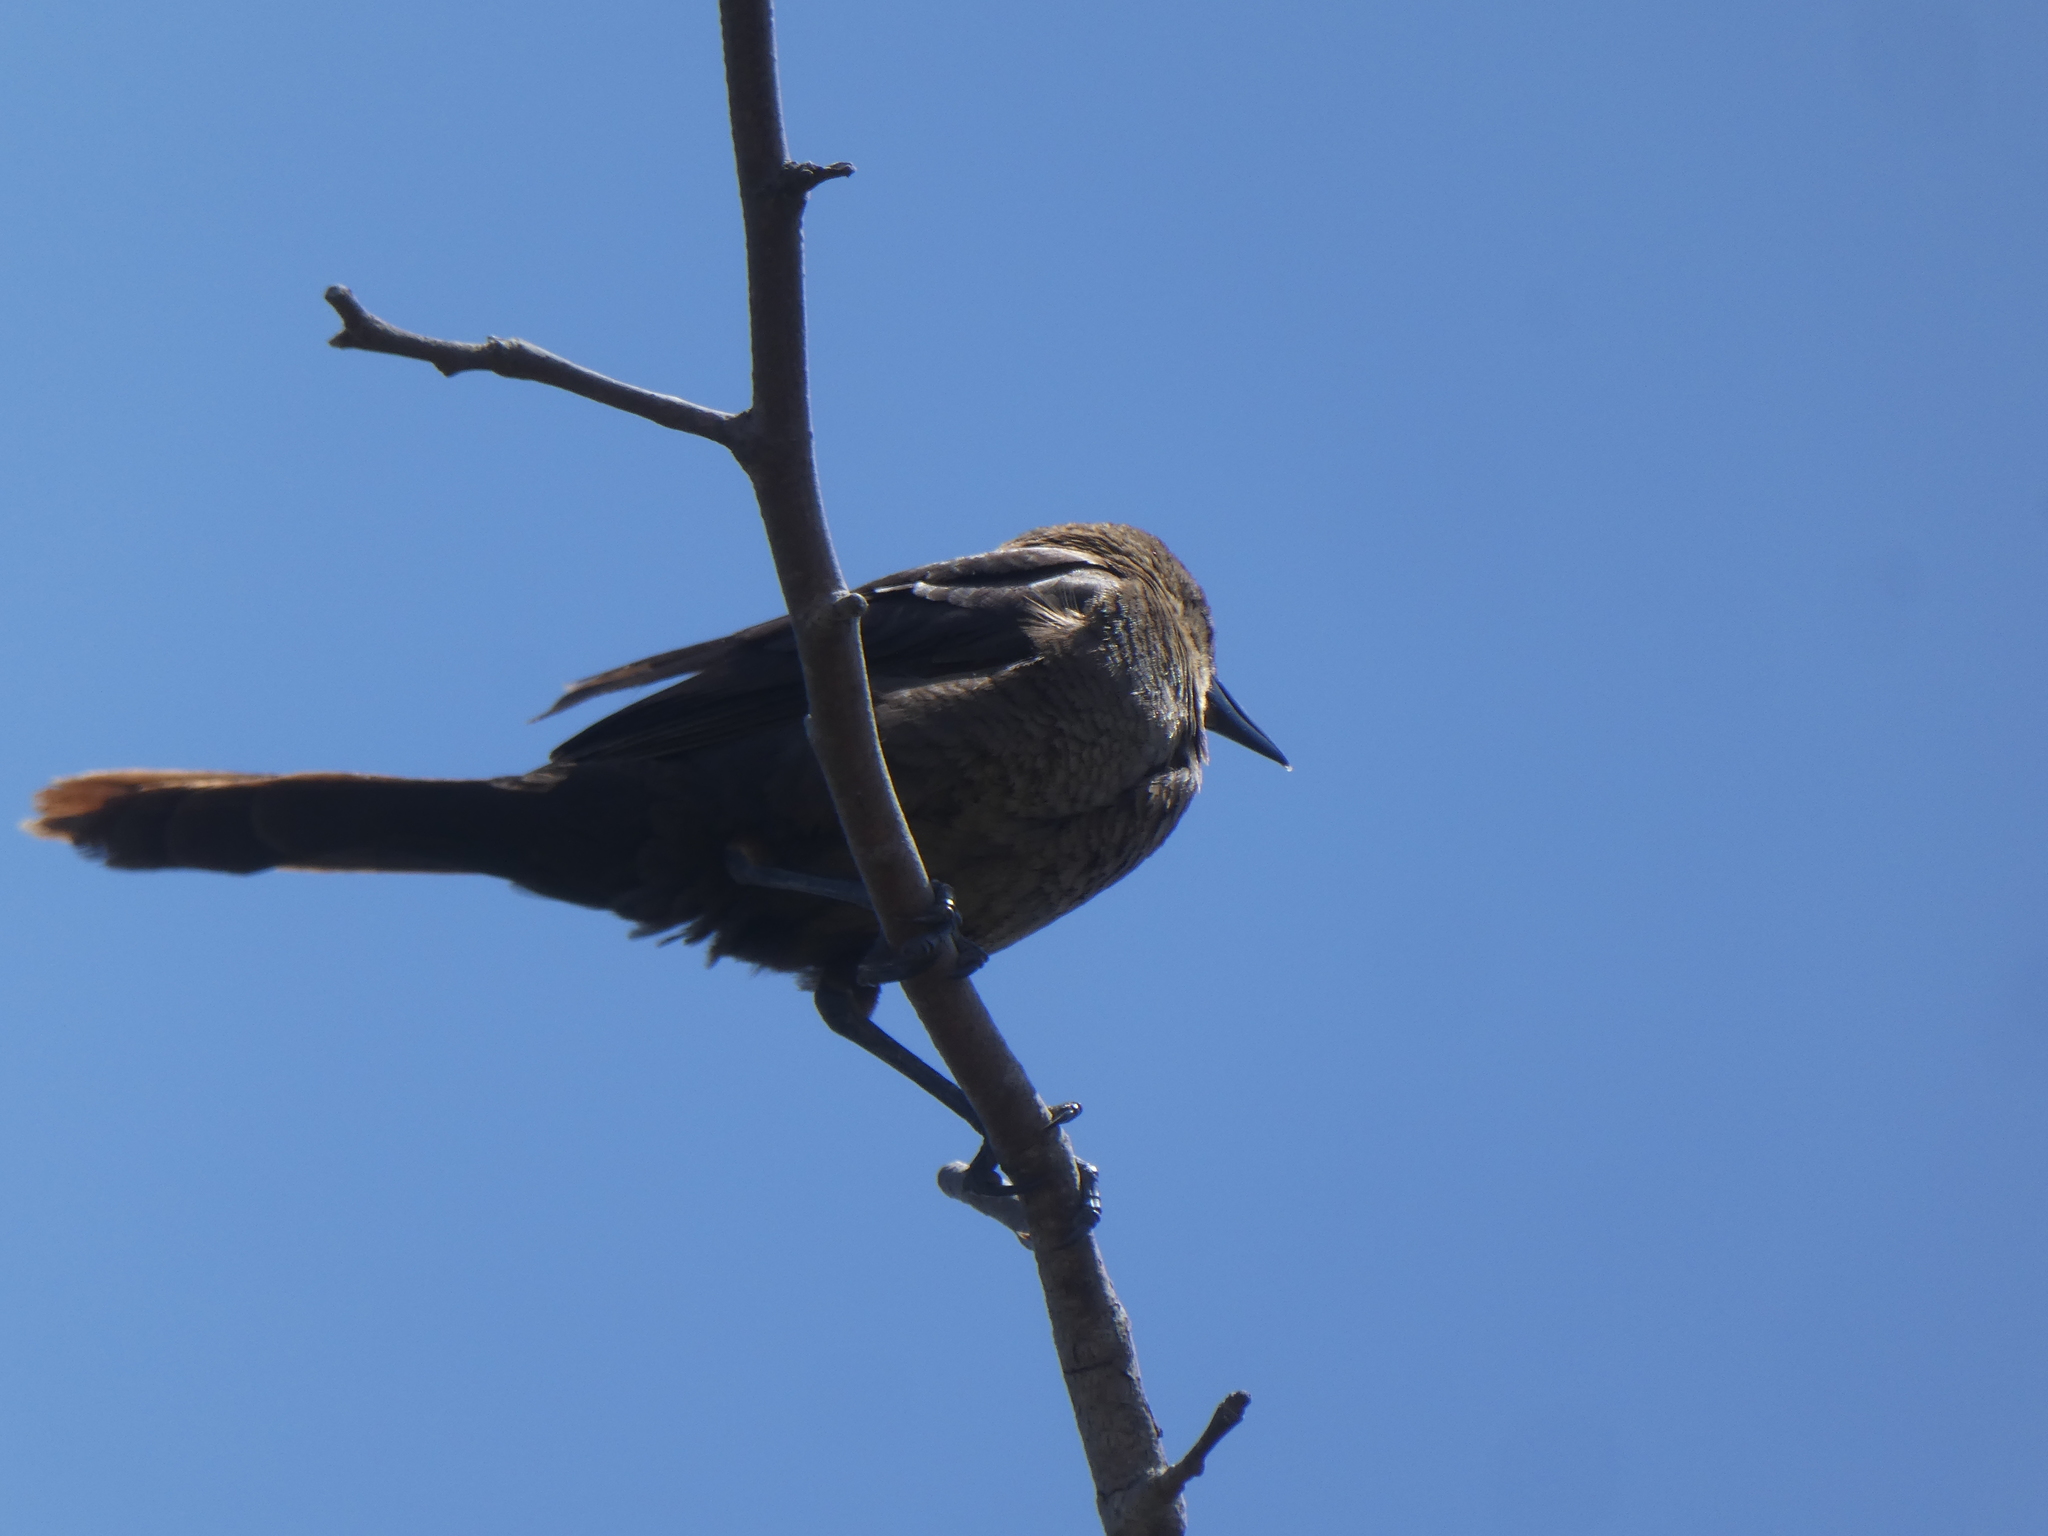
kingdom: Animalia
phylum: Chordata
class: Aves
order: Passeriformes
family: Icteridae
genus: Quiscalus
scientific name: Quiscalus mexicanus
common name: Great-tailed grackle
